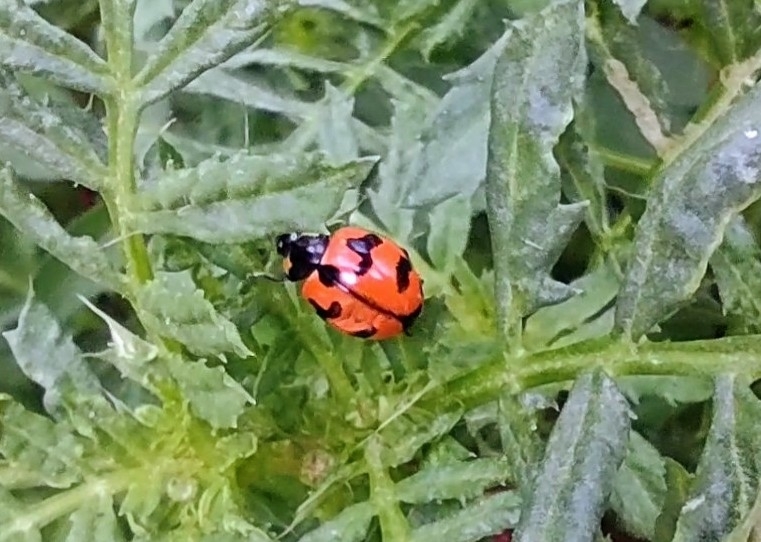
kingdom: Animalia
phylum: Arthropoda
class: Insecta
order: Coleoptera
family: Coccinellidae
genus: Coccinella
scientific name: Coccinella transversalis
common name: Transverse lady beetle
